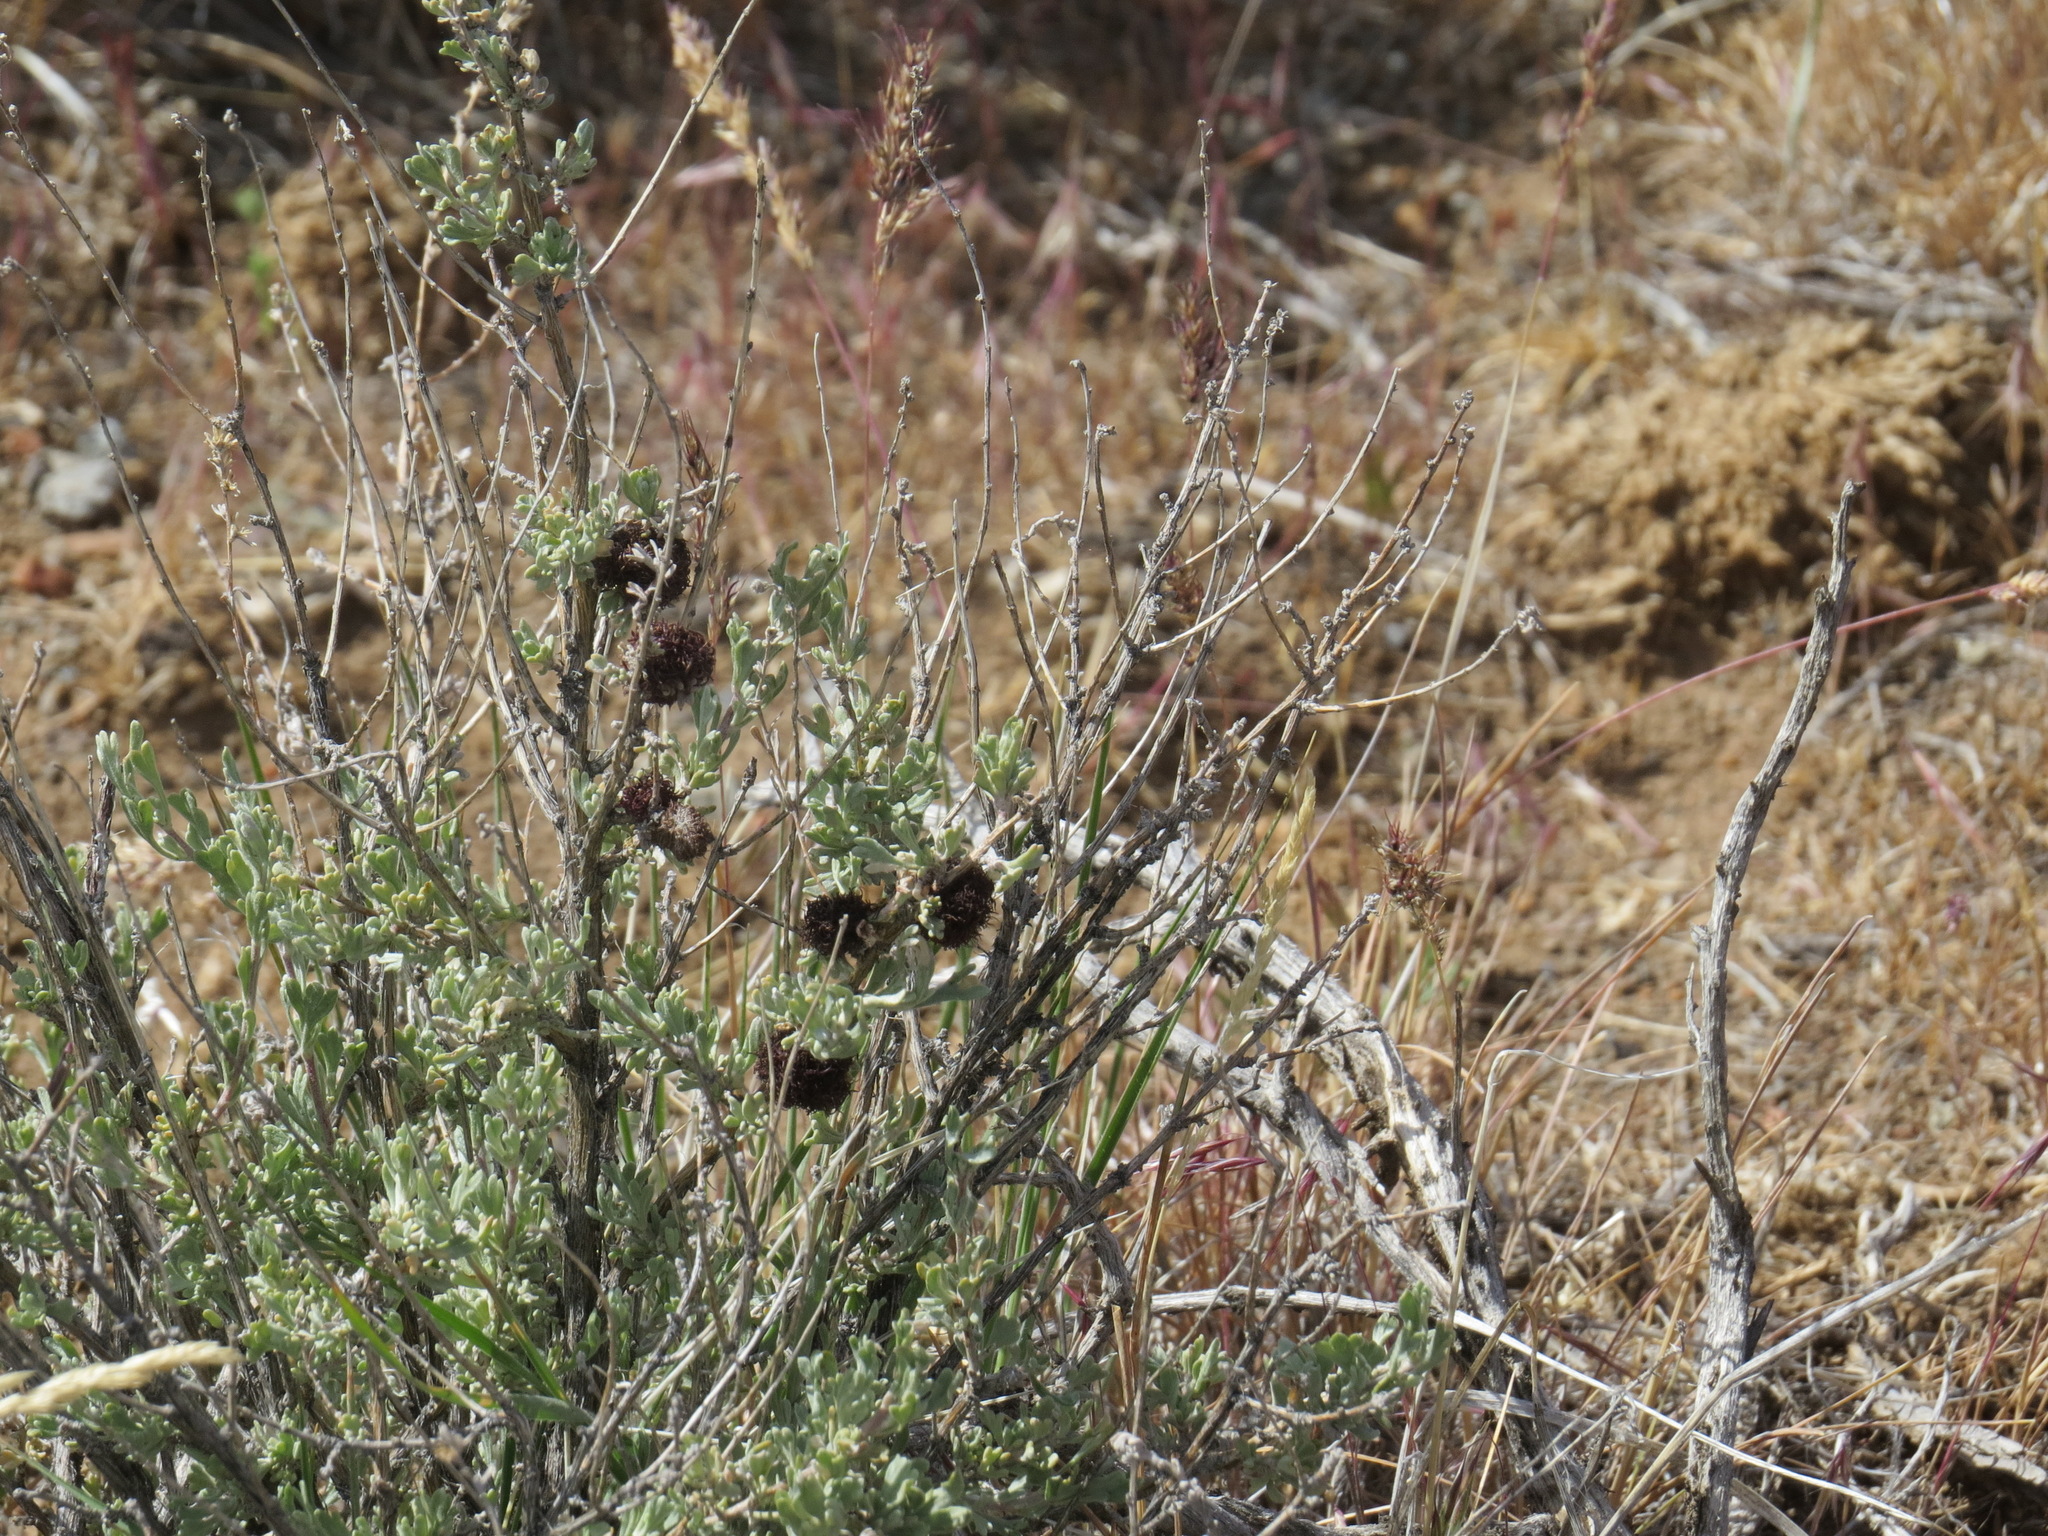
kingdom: Animalia
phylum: Arthropoda
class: Insecta
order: Diptera
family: Cecidomyiidae
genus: Rhopalomyia
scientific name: Rhopalomyia medusa
